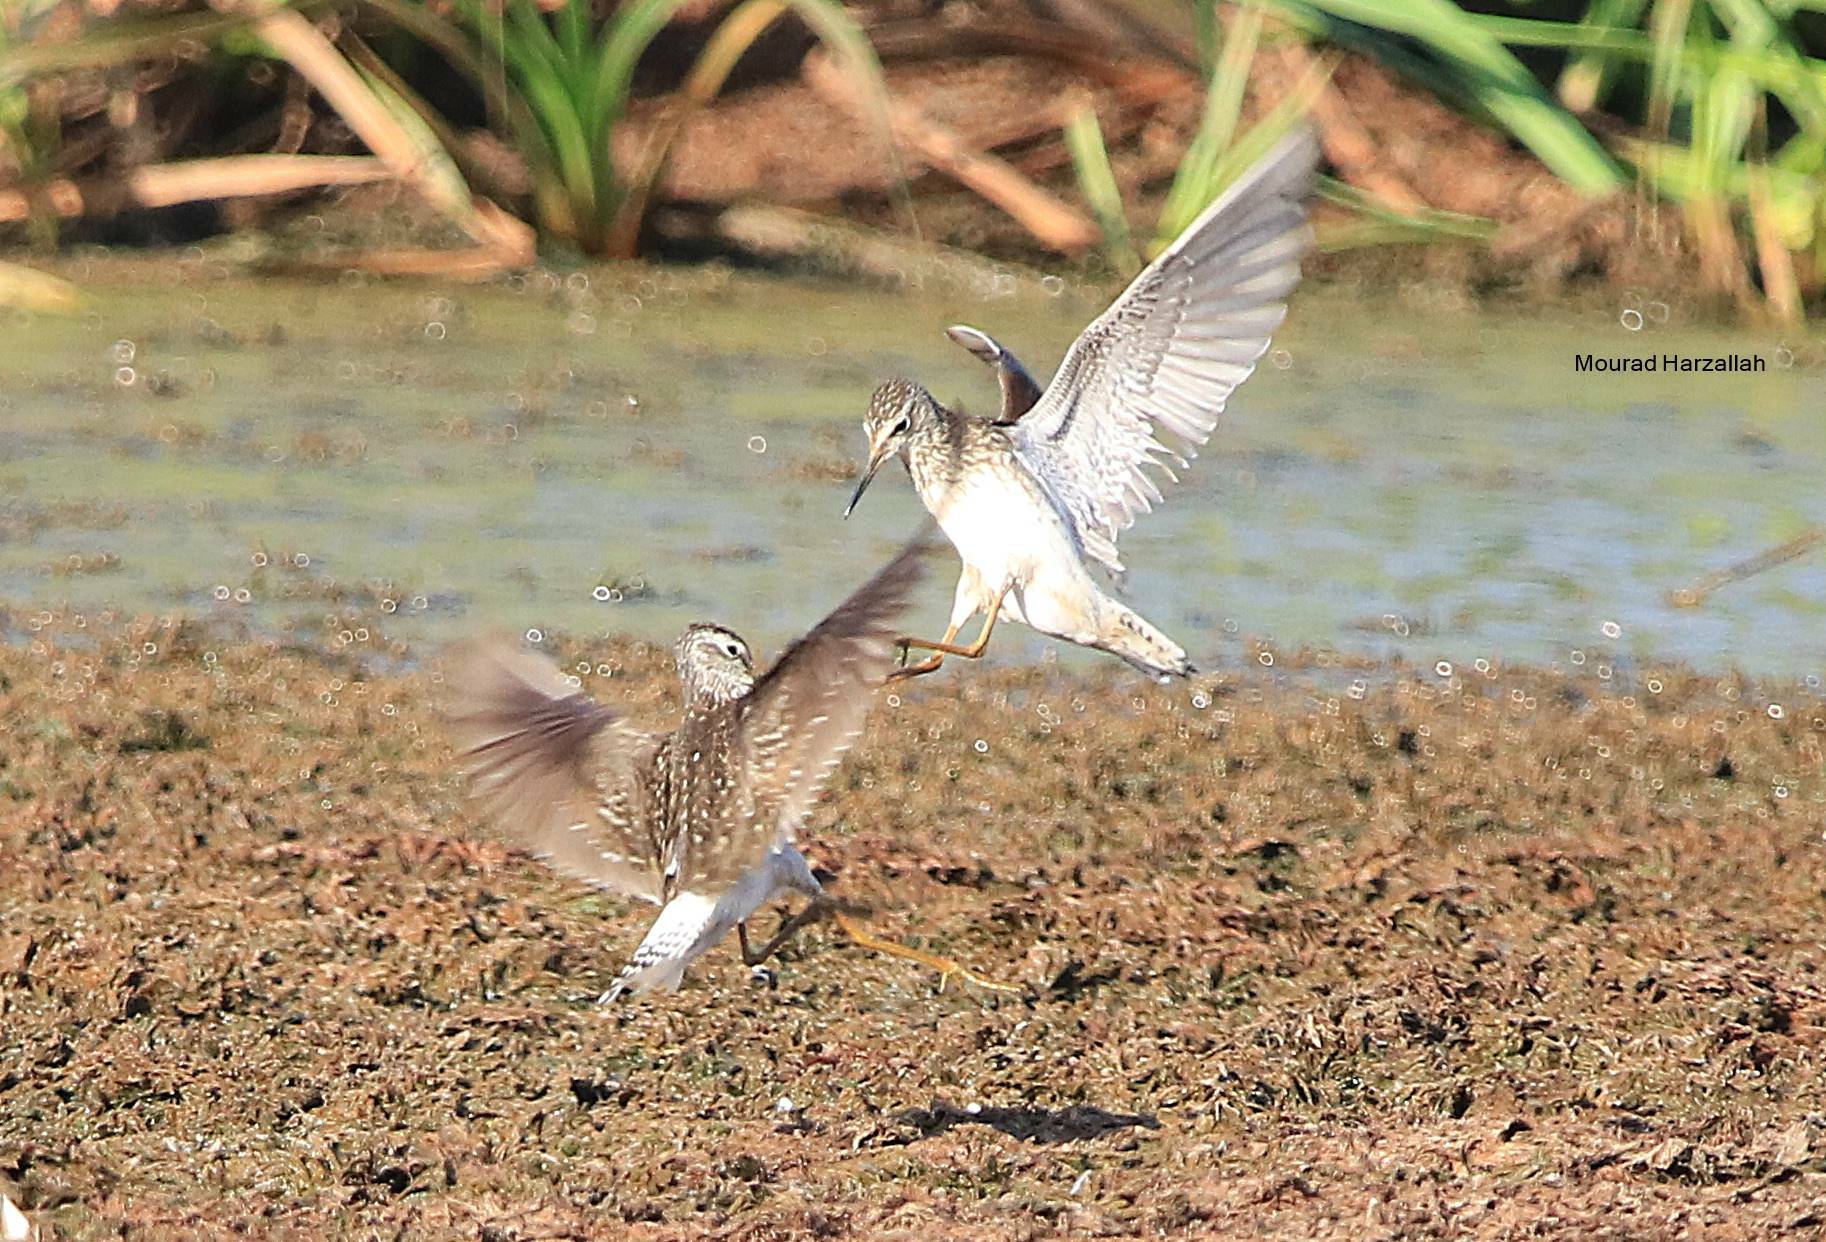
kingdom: Animalia
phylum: Chordata
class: Aves
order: Charadriiformes
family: Scolopacidae
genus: Tringa
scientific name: Tringa glareola
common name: Wood sandpiper
